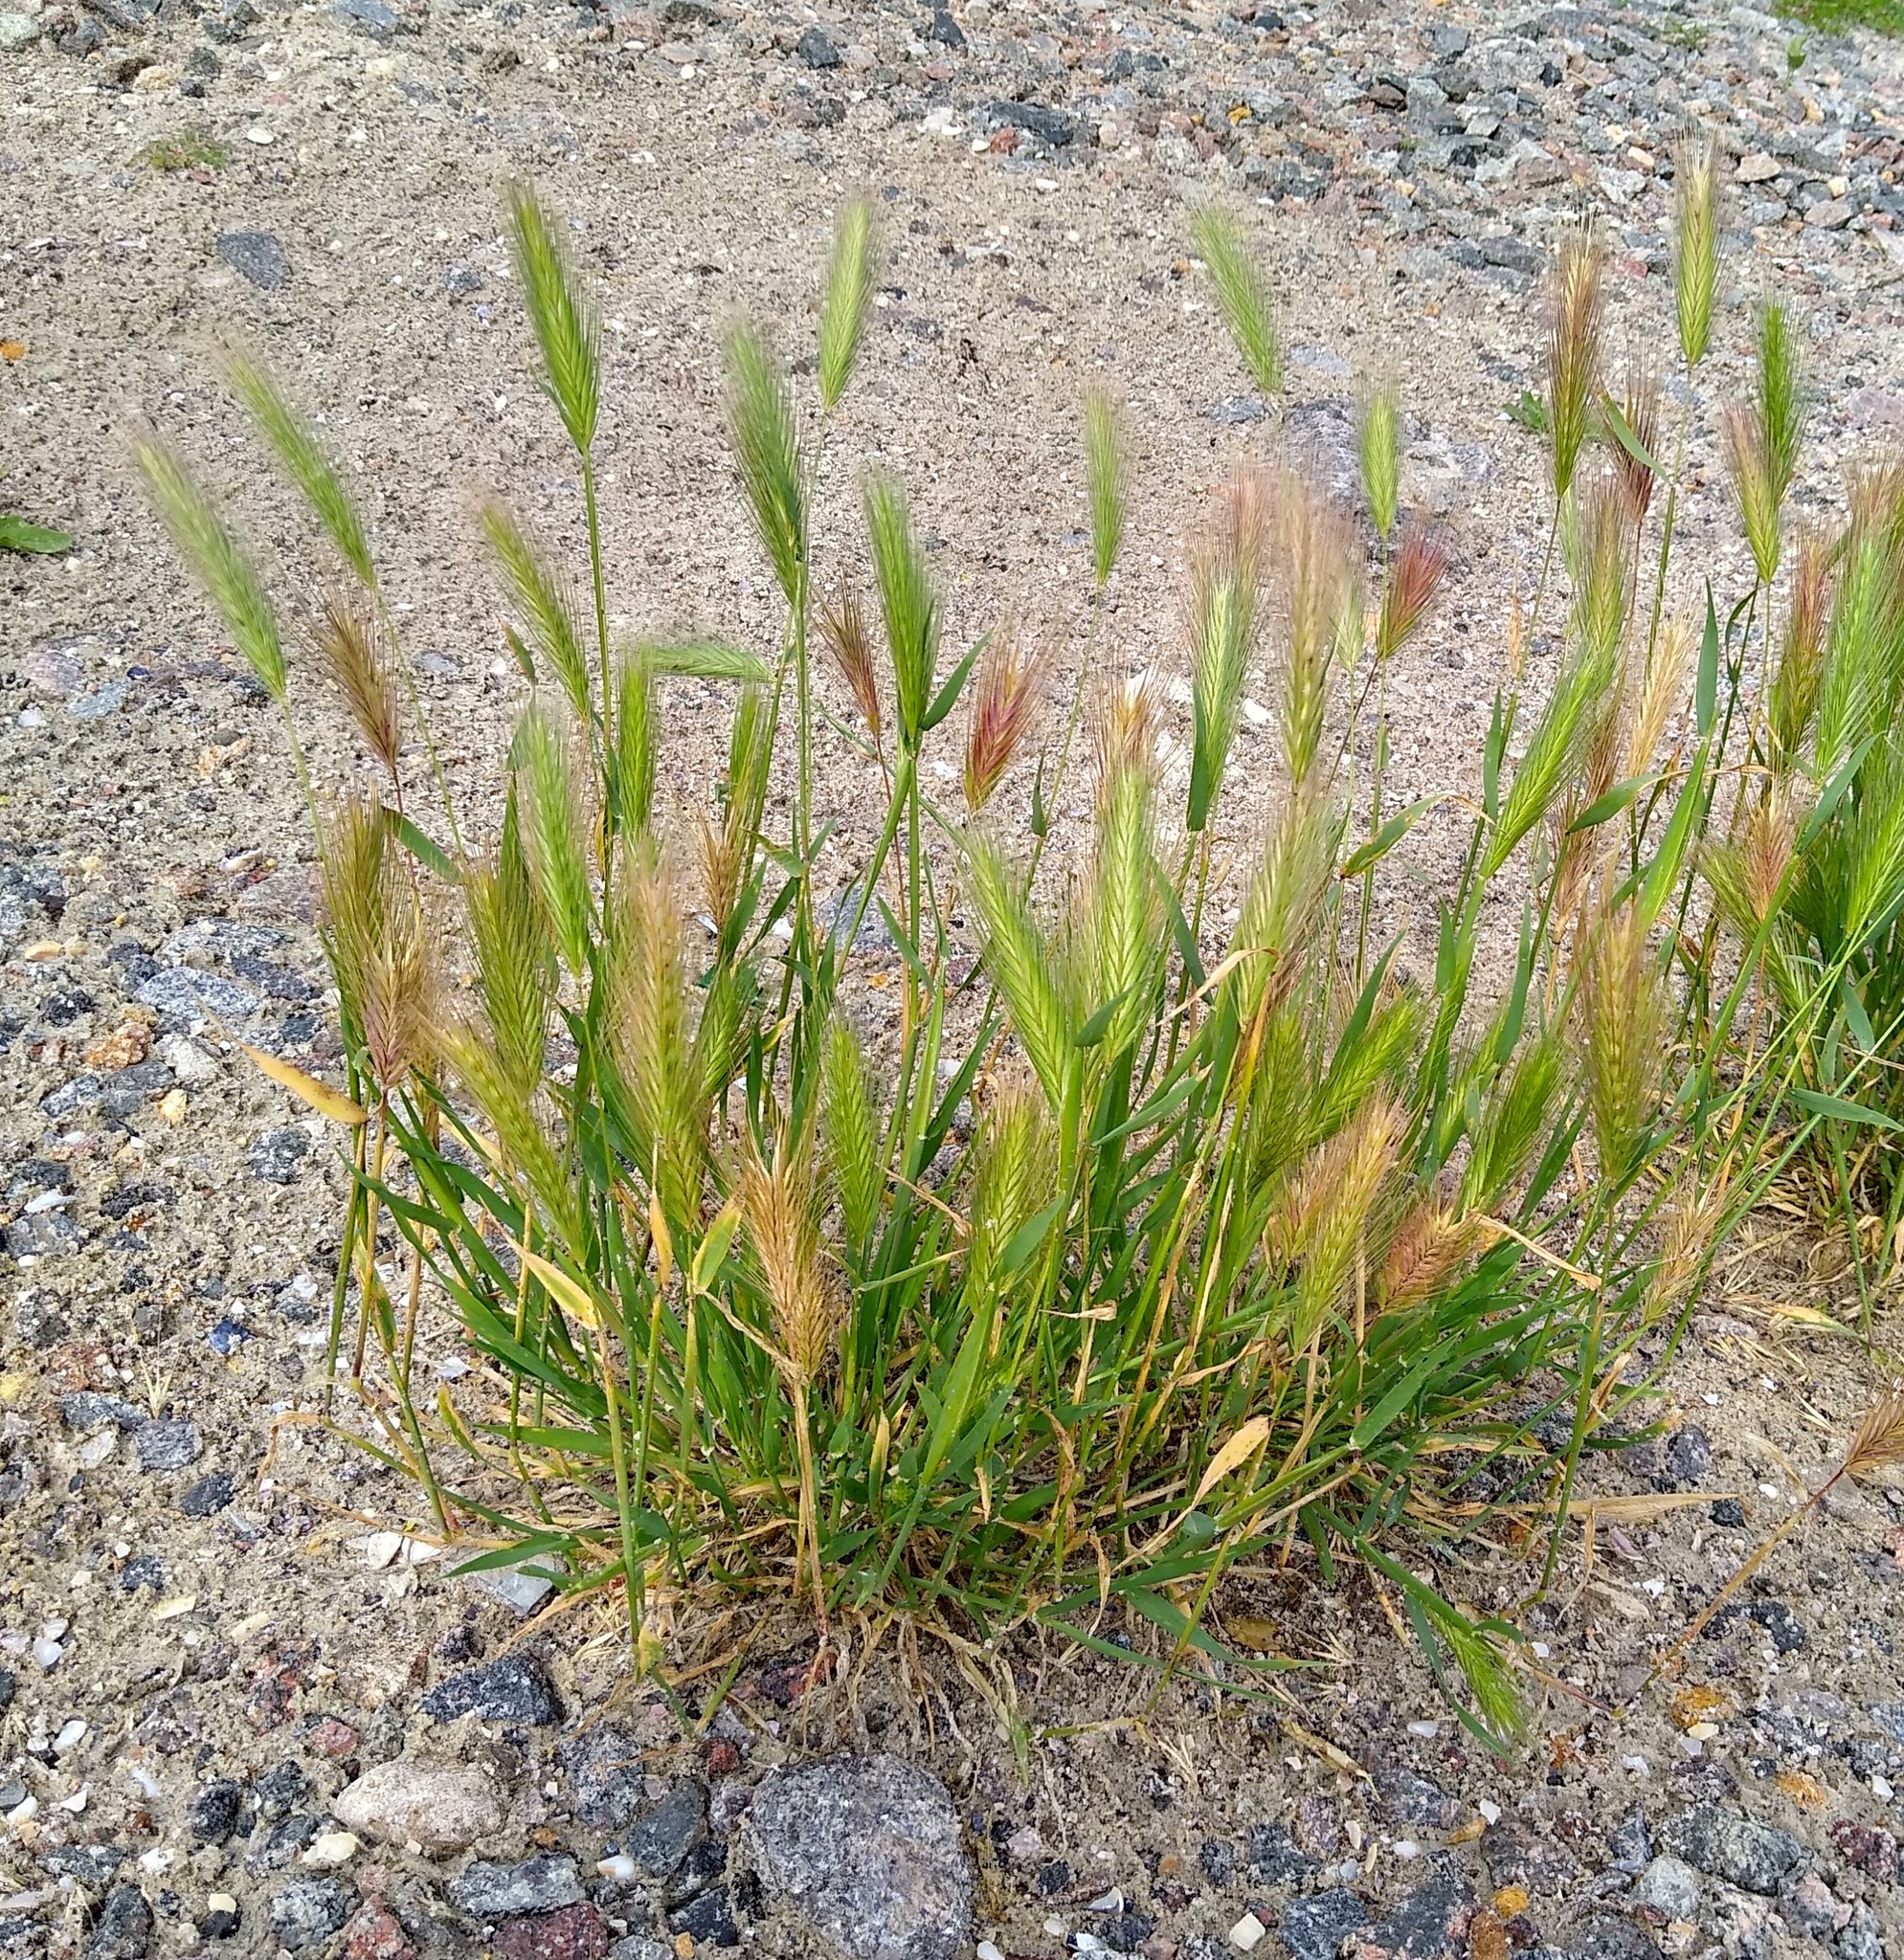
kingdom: Plantae
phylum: Tracheophyta
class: Liliopsida
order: Poales
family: Poaceae
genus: Hordeum
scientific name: Hordeum murinum
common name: Wall barley
